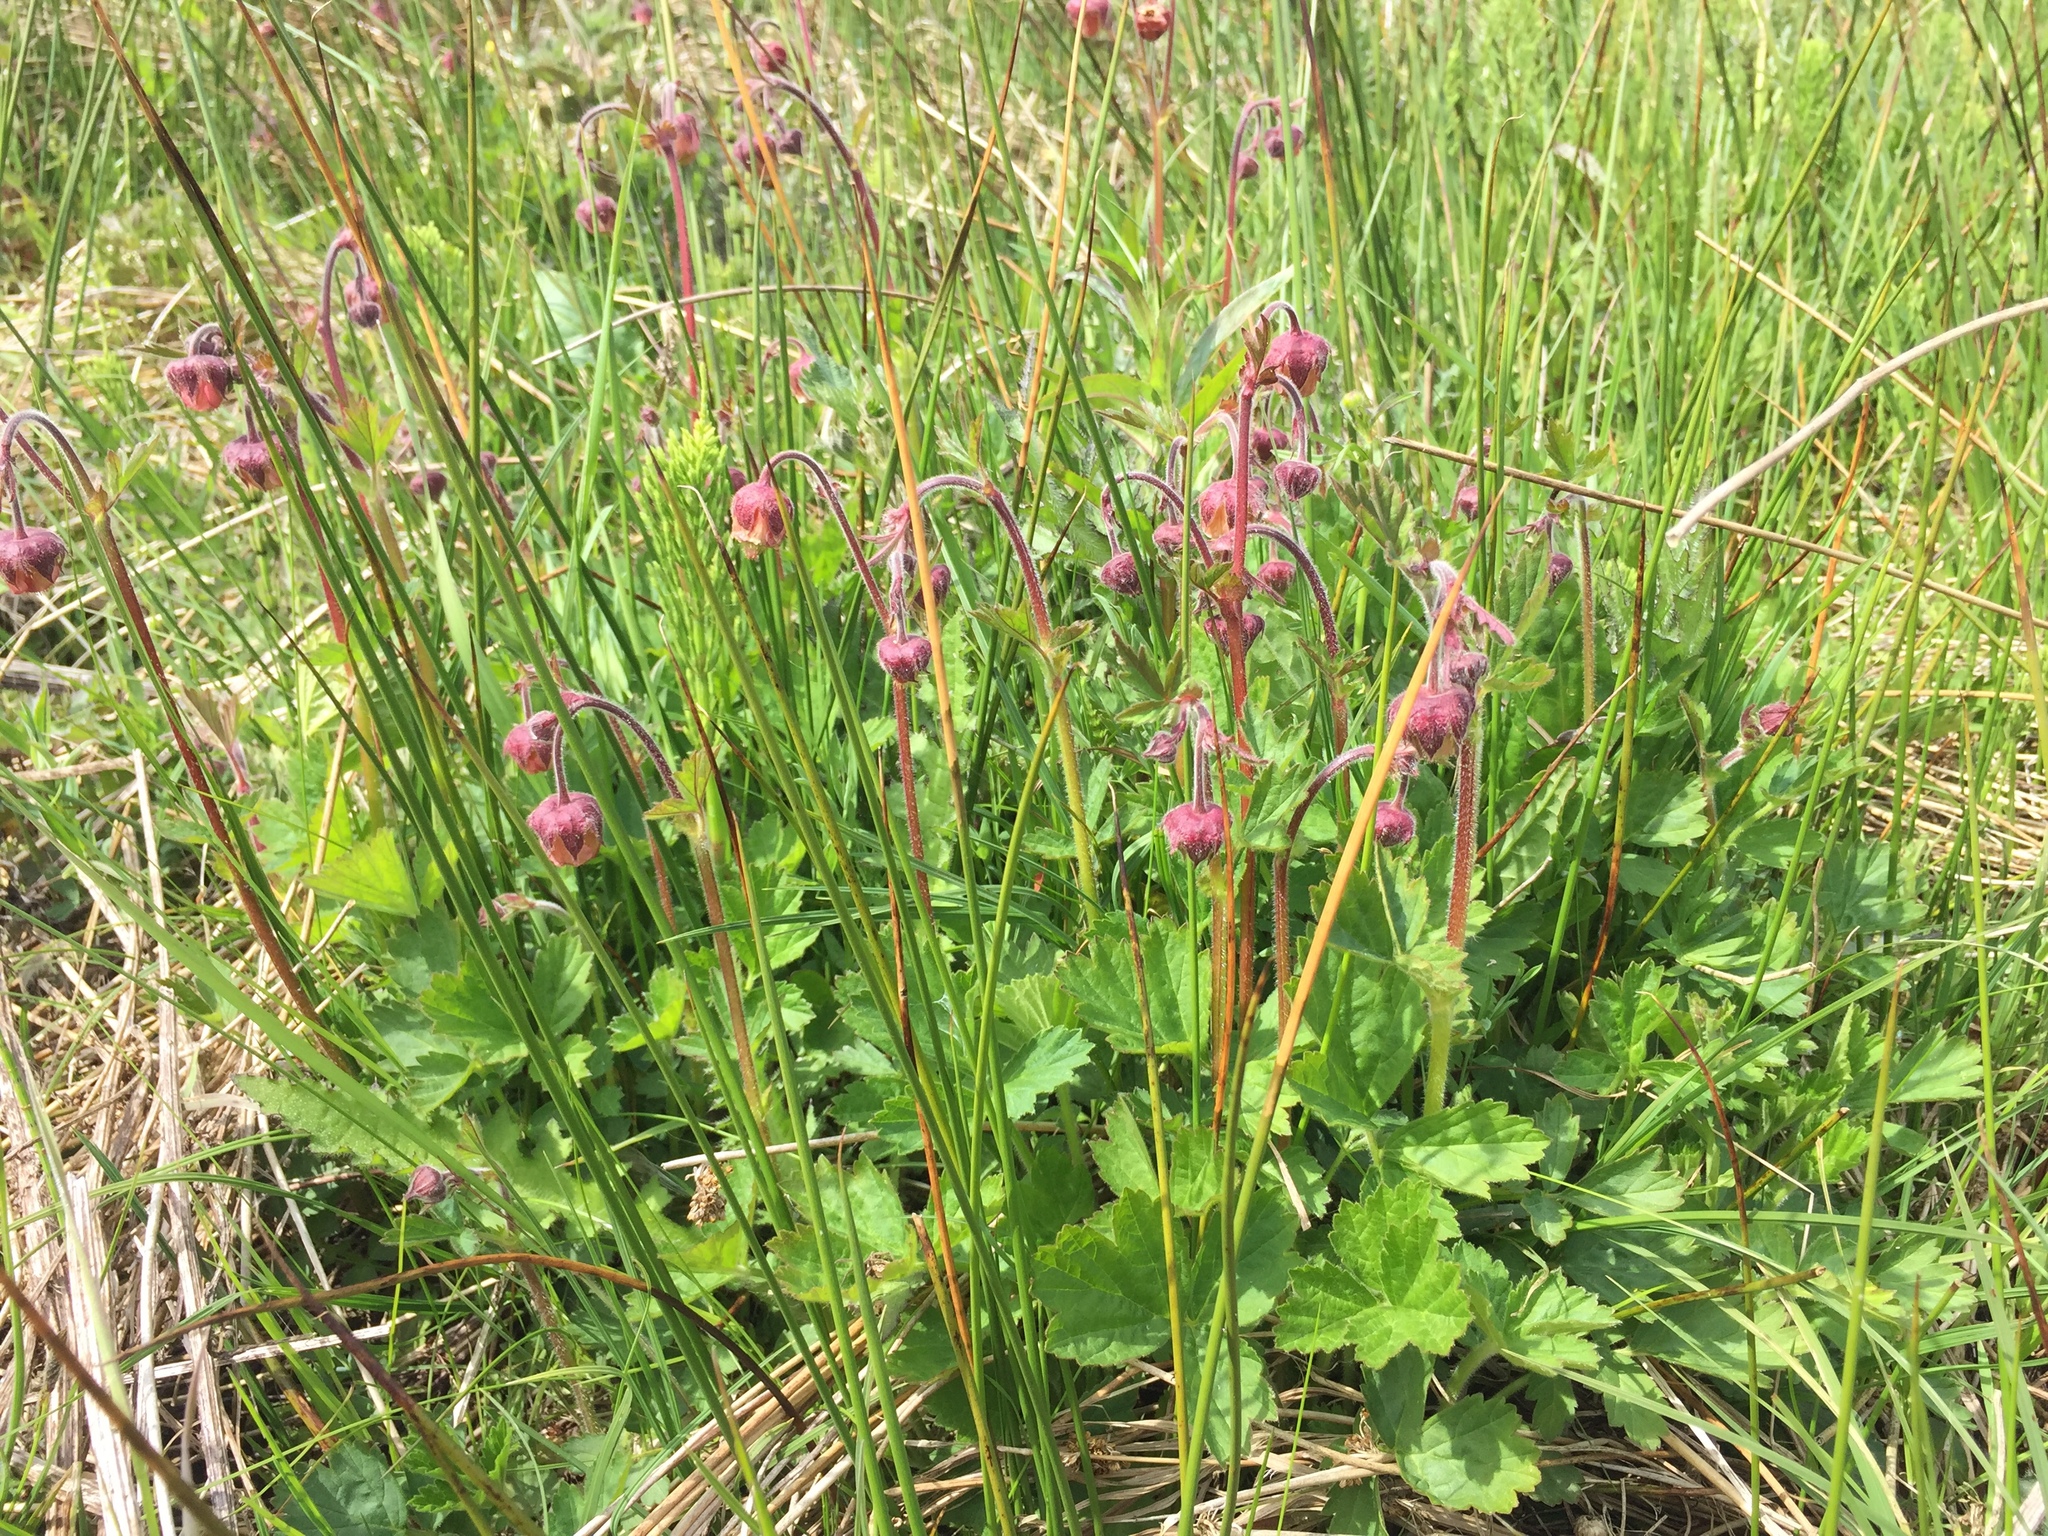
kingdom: Plantae
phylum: Tracheophyta
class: Magnoliopsida
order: Rosales
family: Rosaceae
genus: Geum
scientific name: Geum rivale
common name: Water avens
